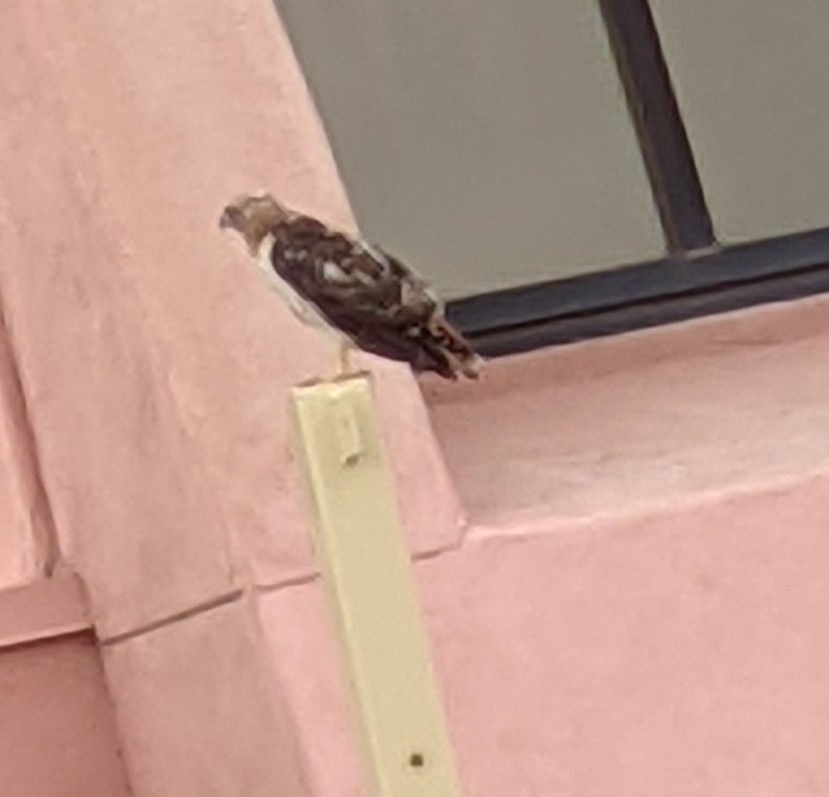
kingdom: Animalia
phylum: Chordata
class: Aves
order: Accipitriformes
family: Accipitridae
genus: Buteo
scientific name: Buteo jamaicensis
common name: Red-tailed hawk
